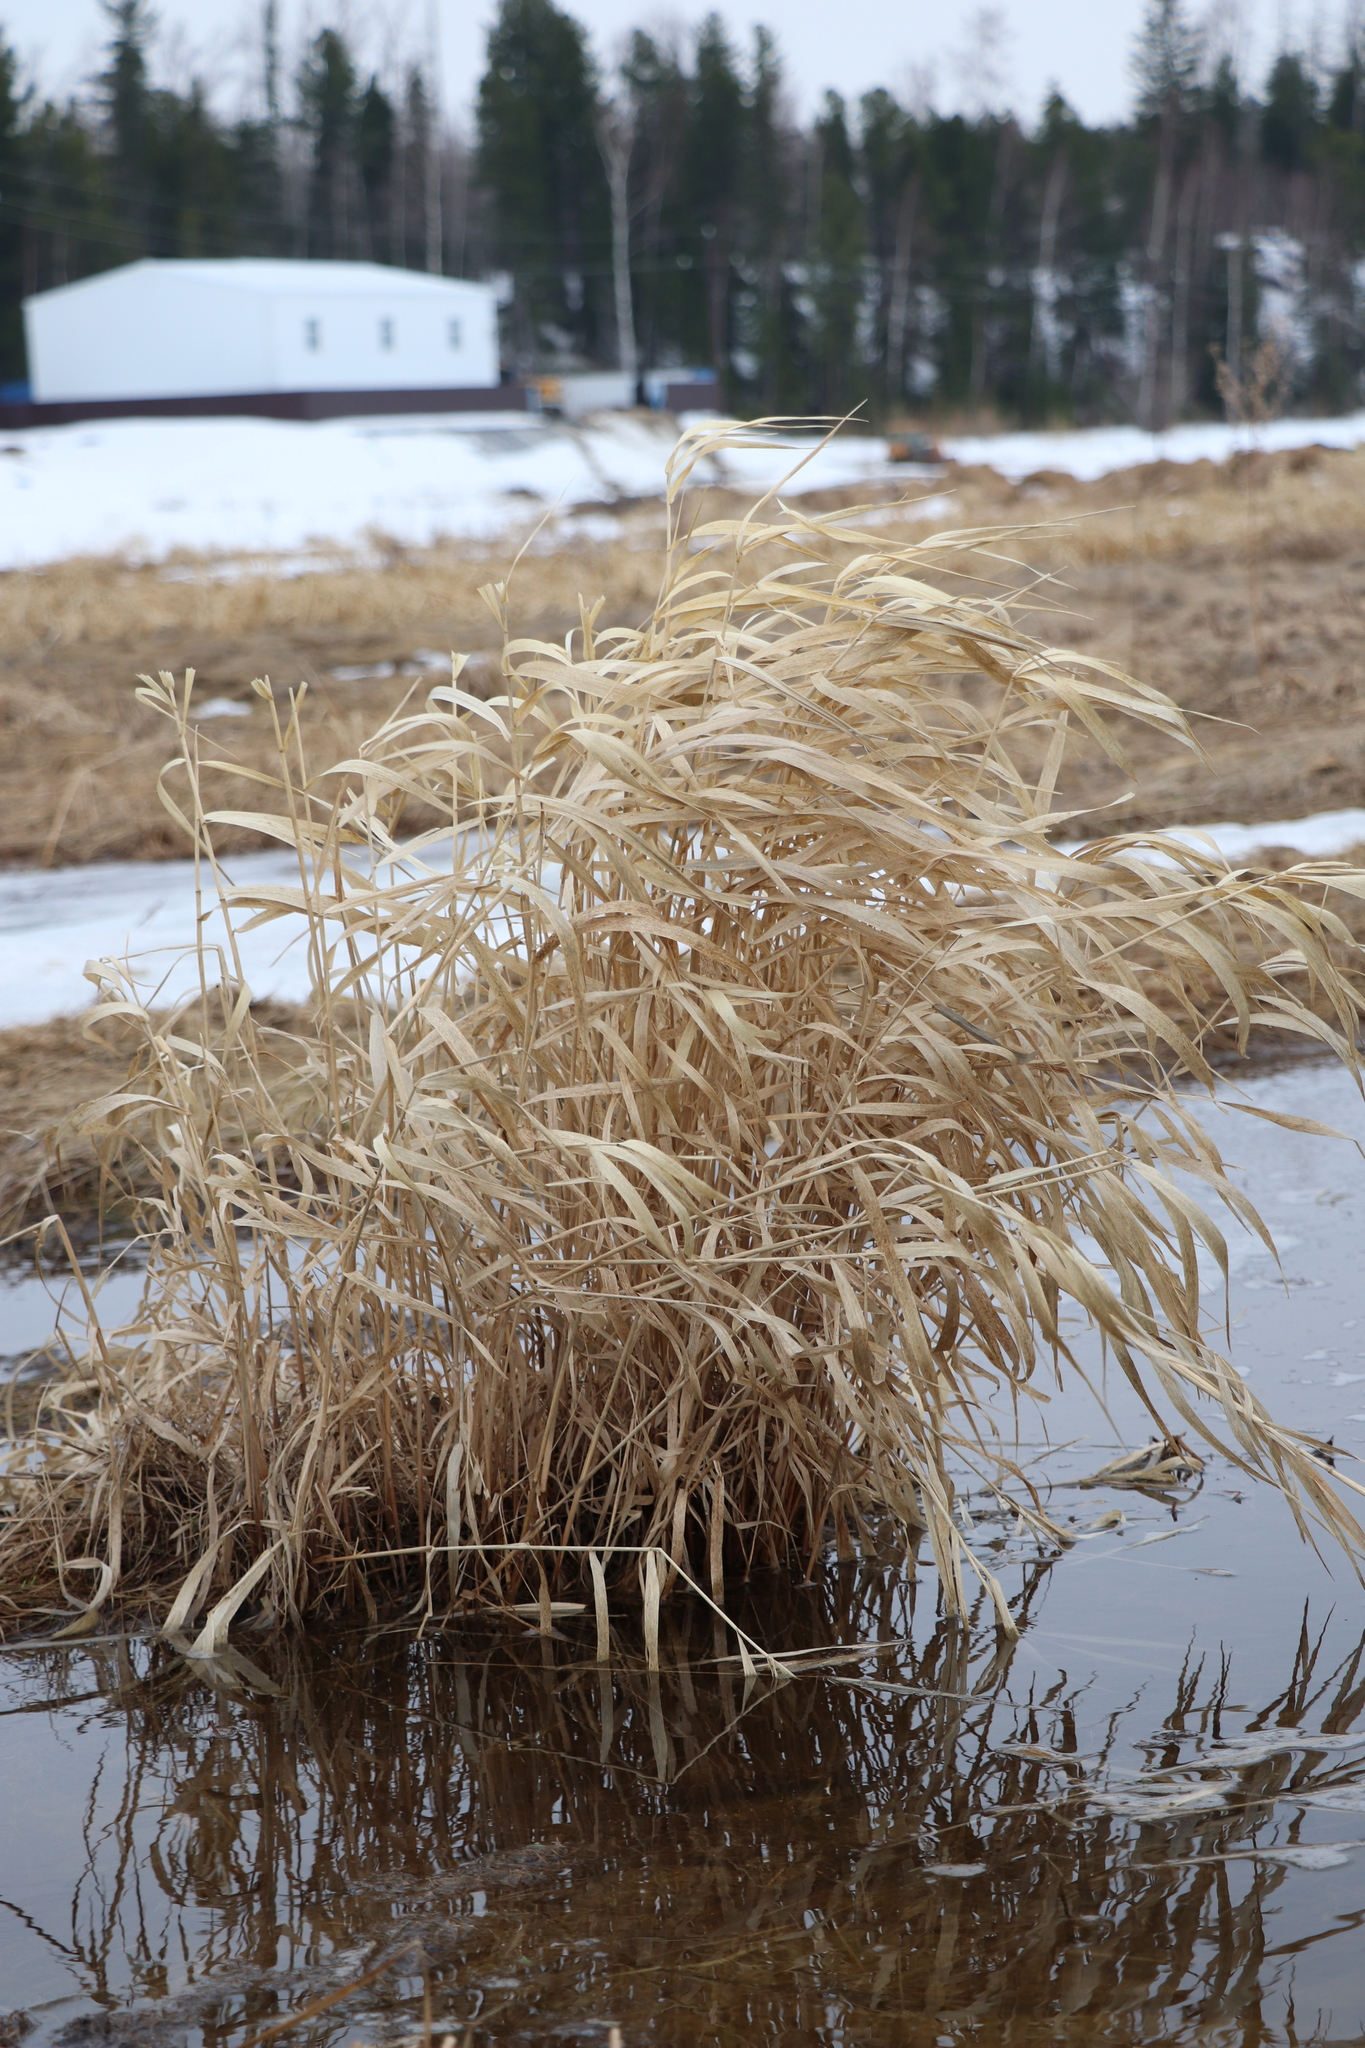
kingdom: Plantae
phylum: Tracheophyta
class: Liliopsida
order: Poales
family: Poaceae
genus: Phalaris
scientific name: Phalaris arundinacea
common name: Reed canary-grass
